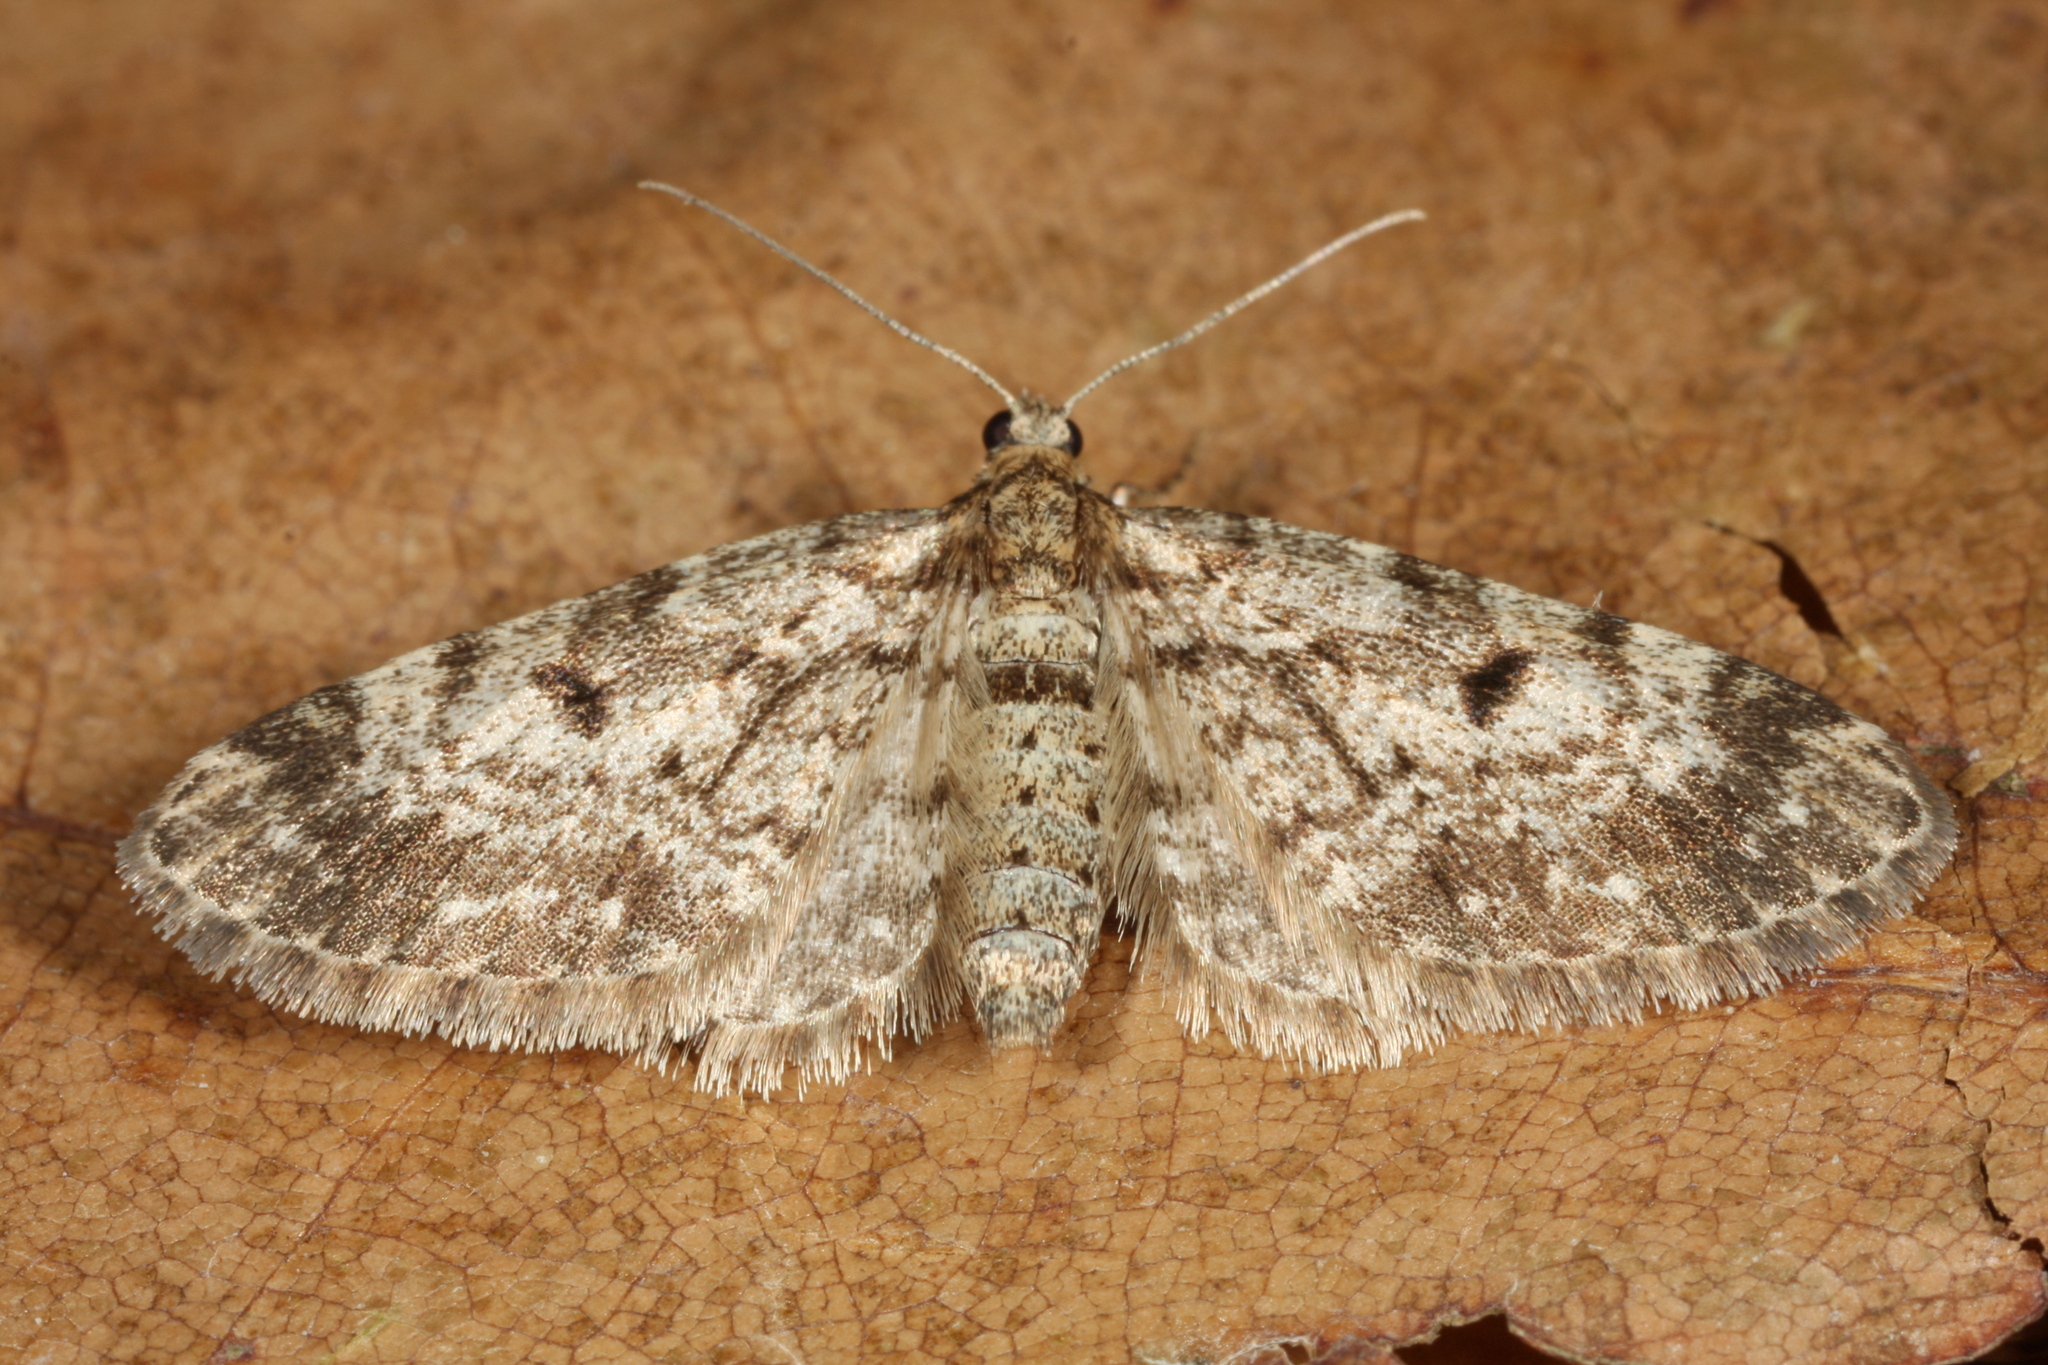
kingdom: Animalia
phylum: Arthropoda
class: Insecta
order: Lepidoptera
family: Geometridae
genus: Eupithecia
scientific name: Eupithecia tantillaria
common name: Dwarf pug
